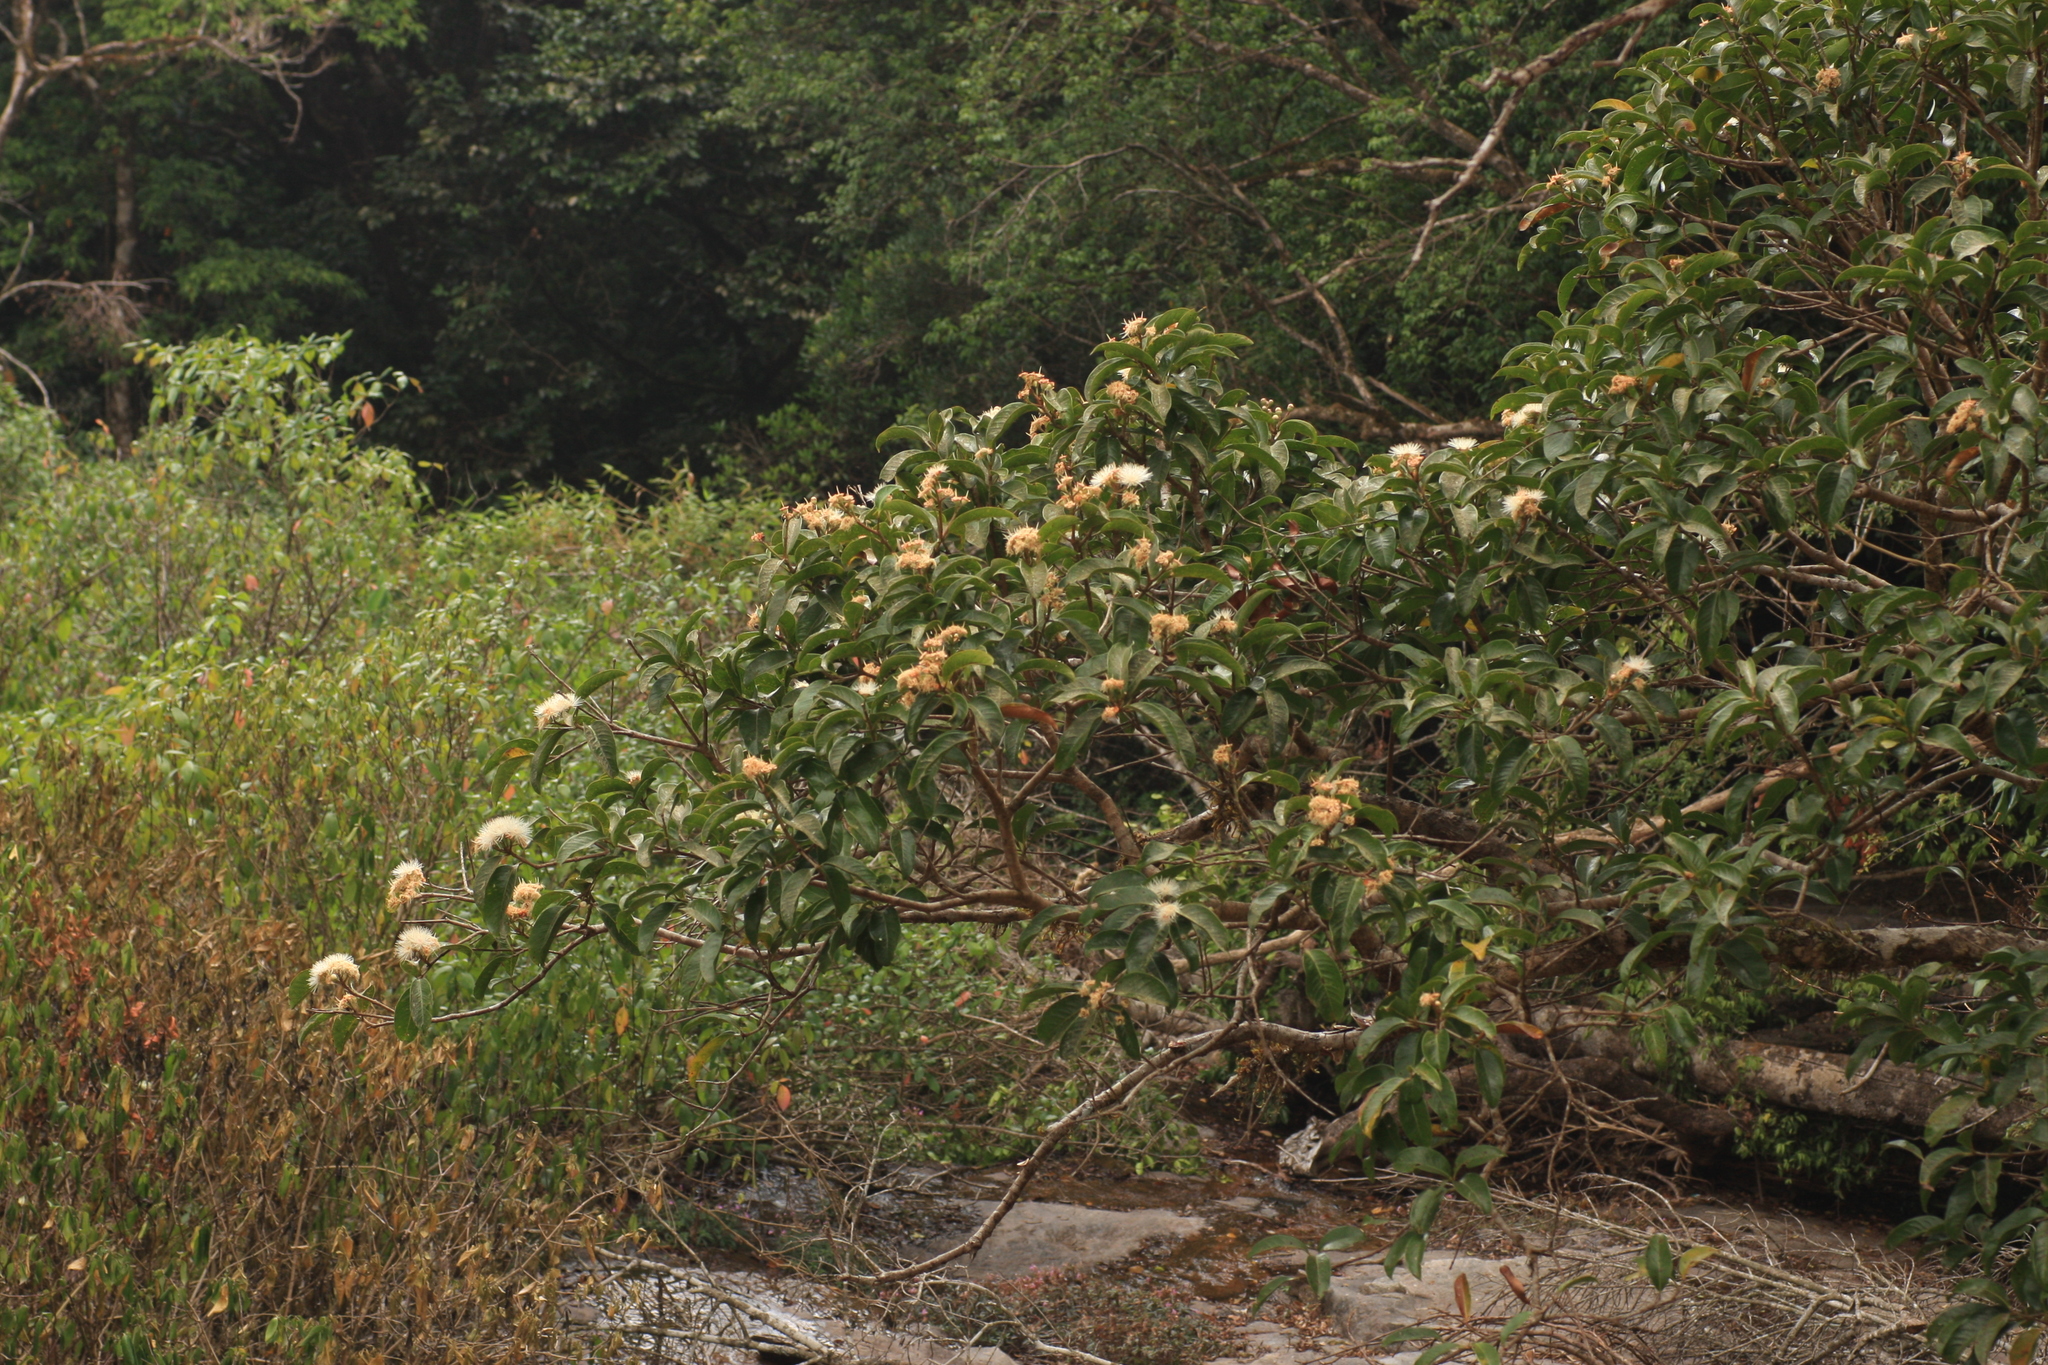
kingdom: Plantae
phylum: Tracheophyta
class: Magnoliopsida
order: Myrtales
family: Myrtaceae
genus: Syzygium
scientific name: Syzygium hemisphericum
